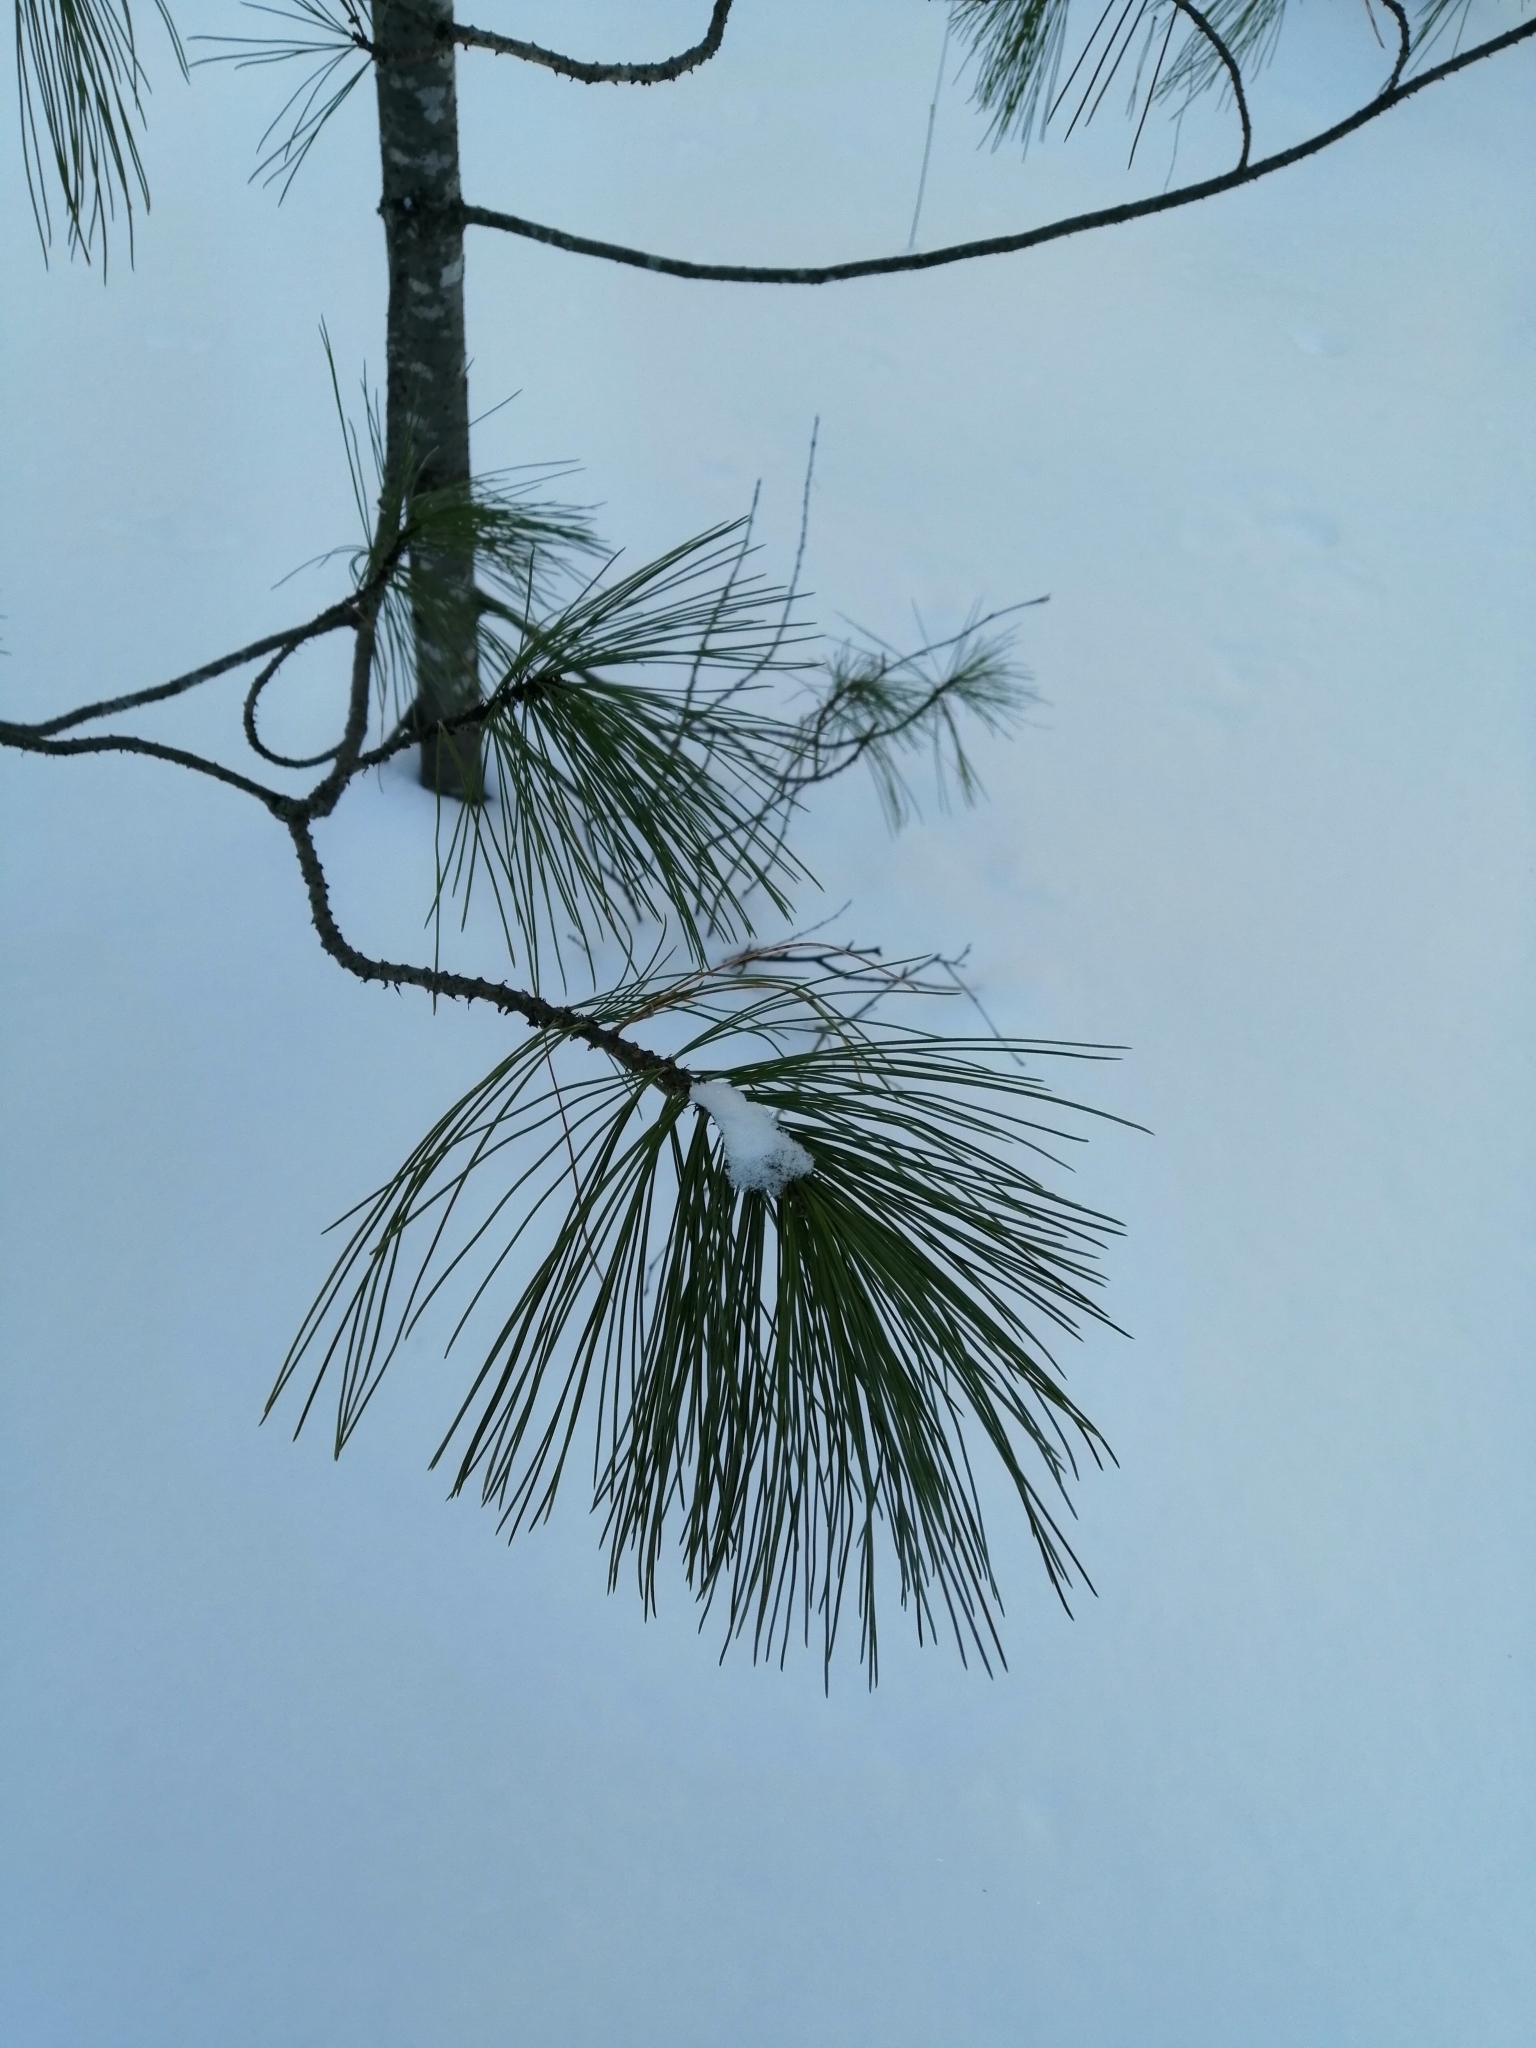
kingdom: Plantae
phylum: Tracheophyta
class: Pinopsida
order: Pinales
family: Pinaceae
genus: Pinus
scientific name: Pinus sibirica
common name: Siberian pine
